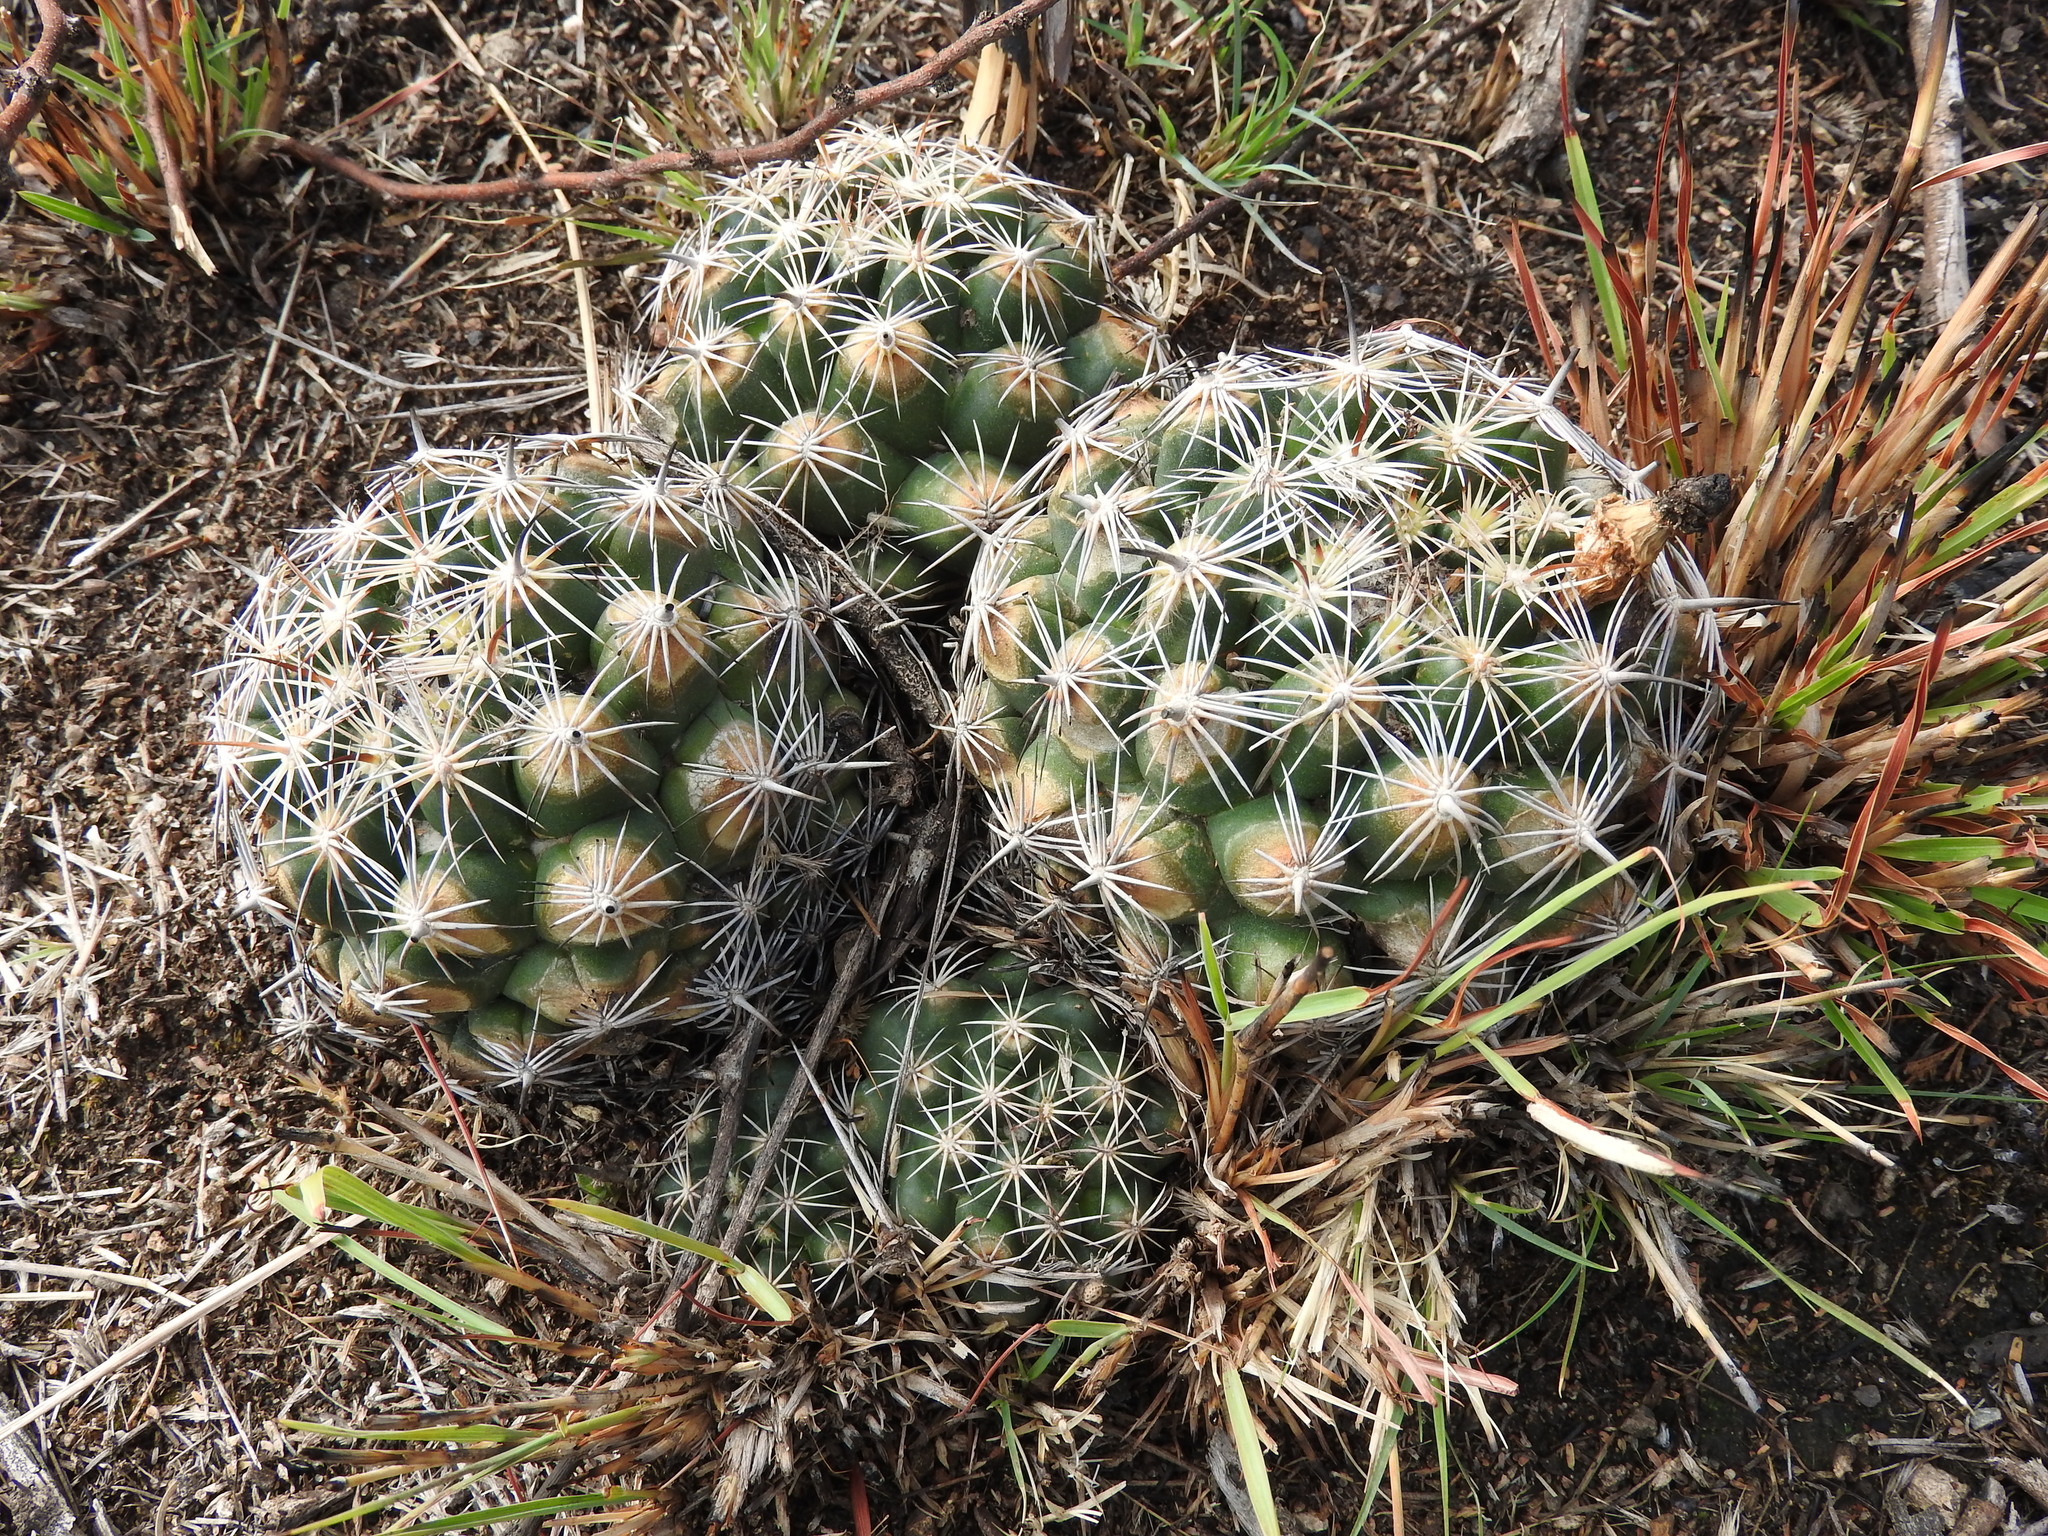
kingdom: Plantae
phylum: Tracheophyta
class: Magnoliopsida
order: Caryophyllales
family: Cactaceae
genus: Coryphantha
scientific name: Coryphantha delicata
